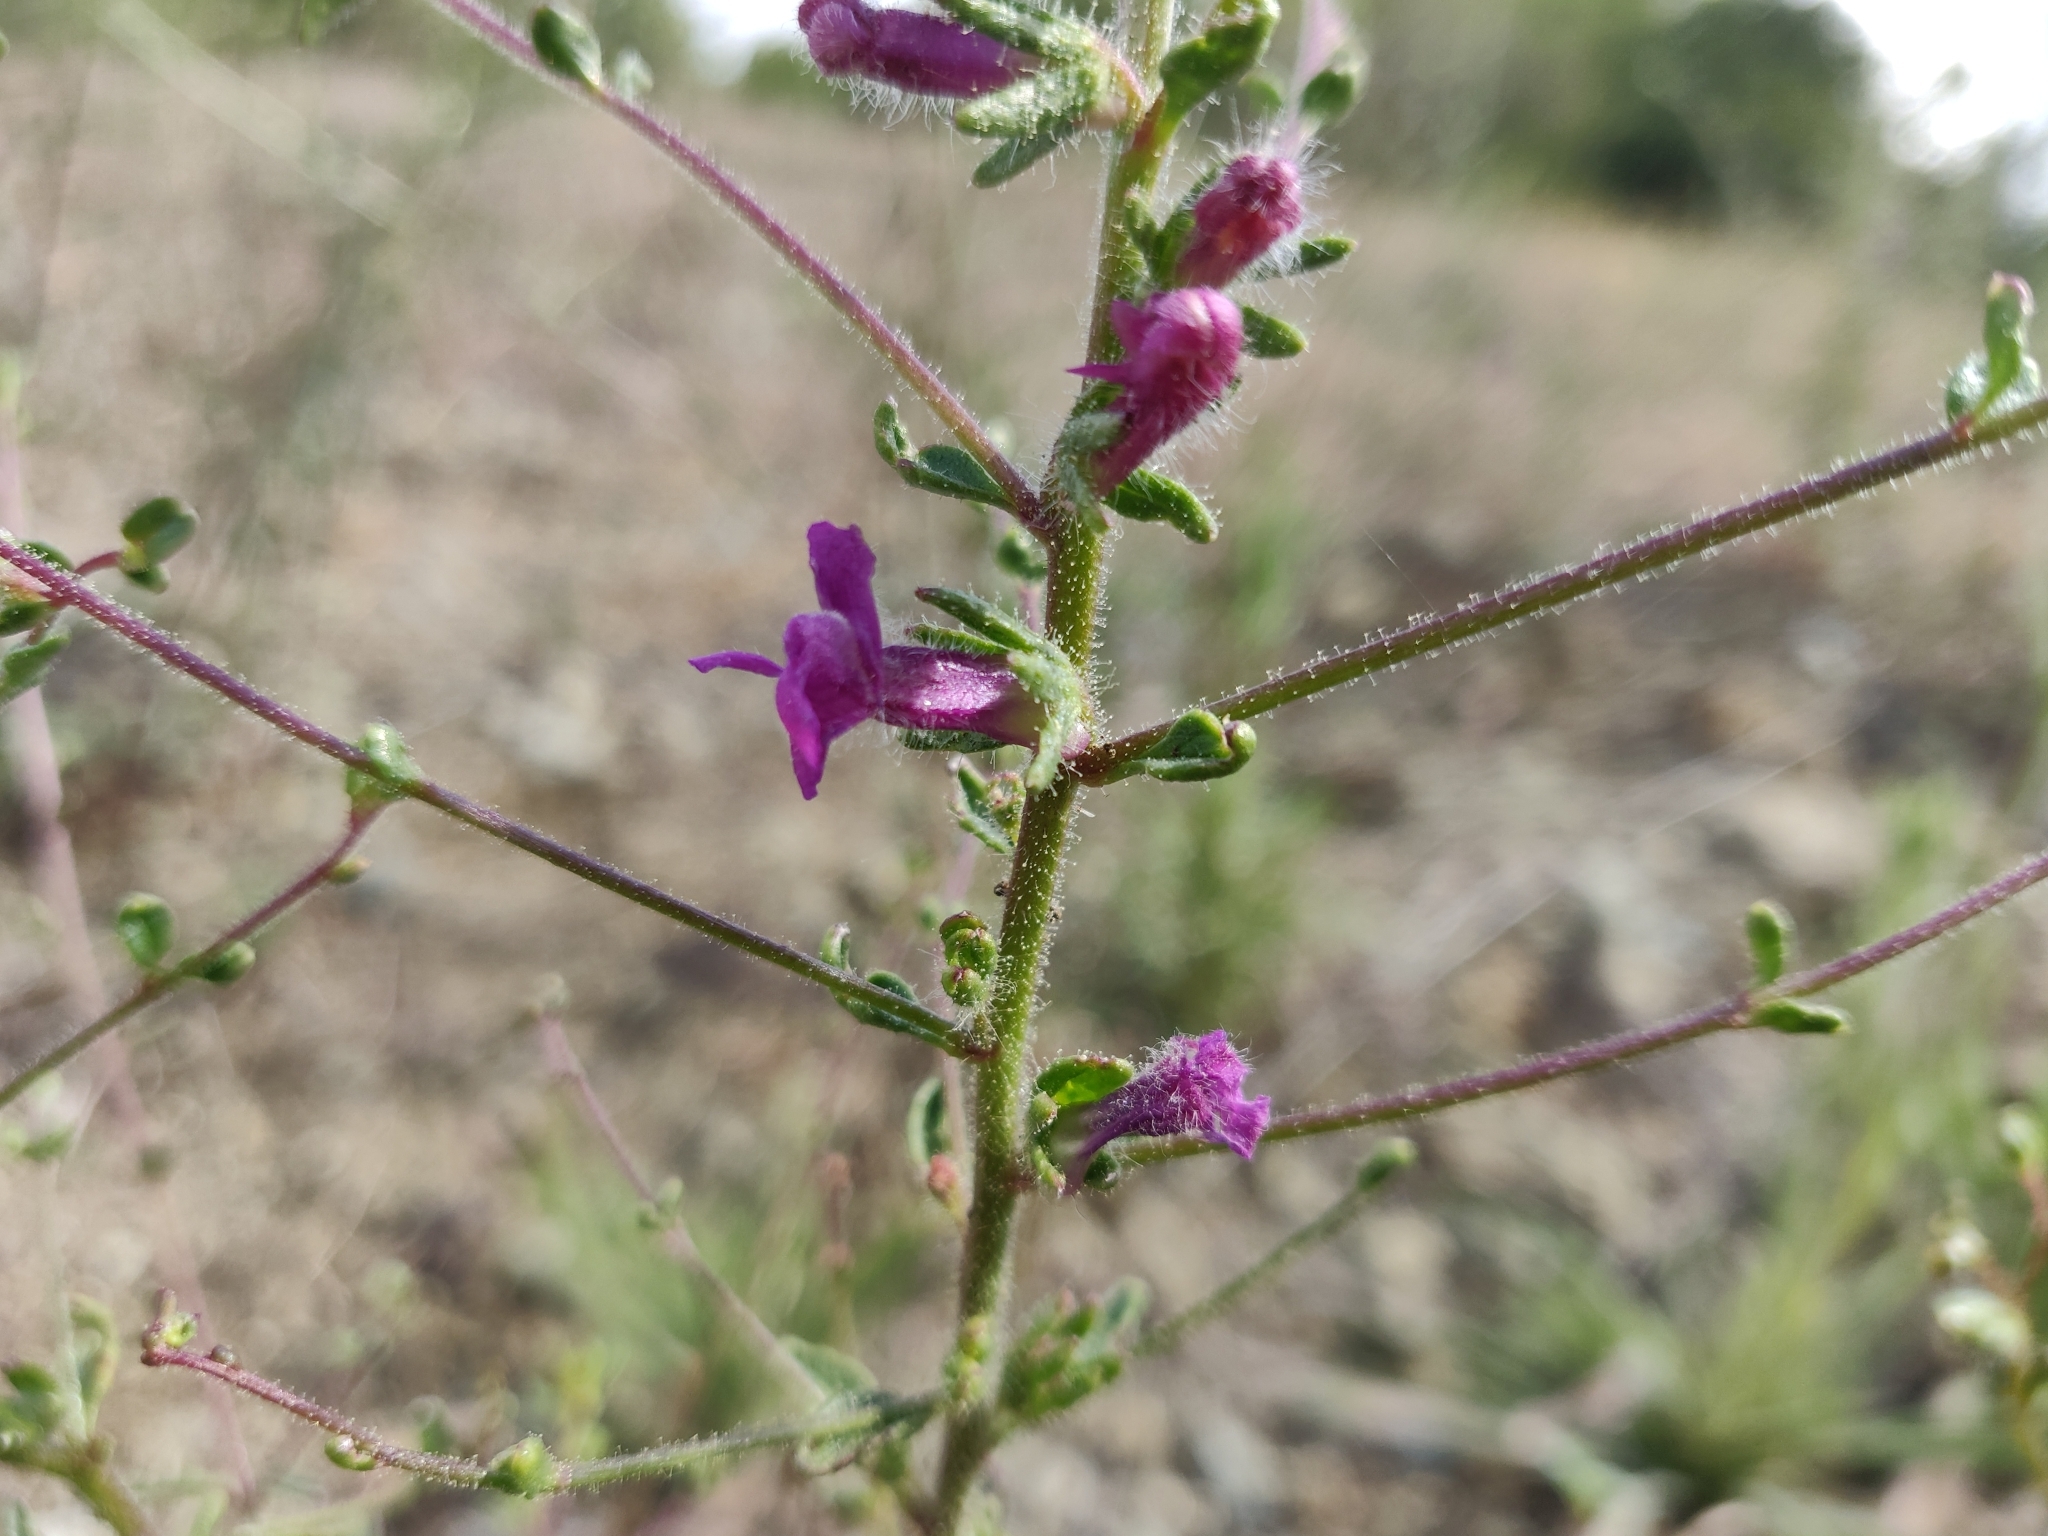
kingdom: Plantae
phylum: Tracheophyta
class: Magnoliopsida
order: Lamiales
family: Plantaginaceae
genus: Sairocarpus
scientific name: Sairocarpus vexillocalyculatus
